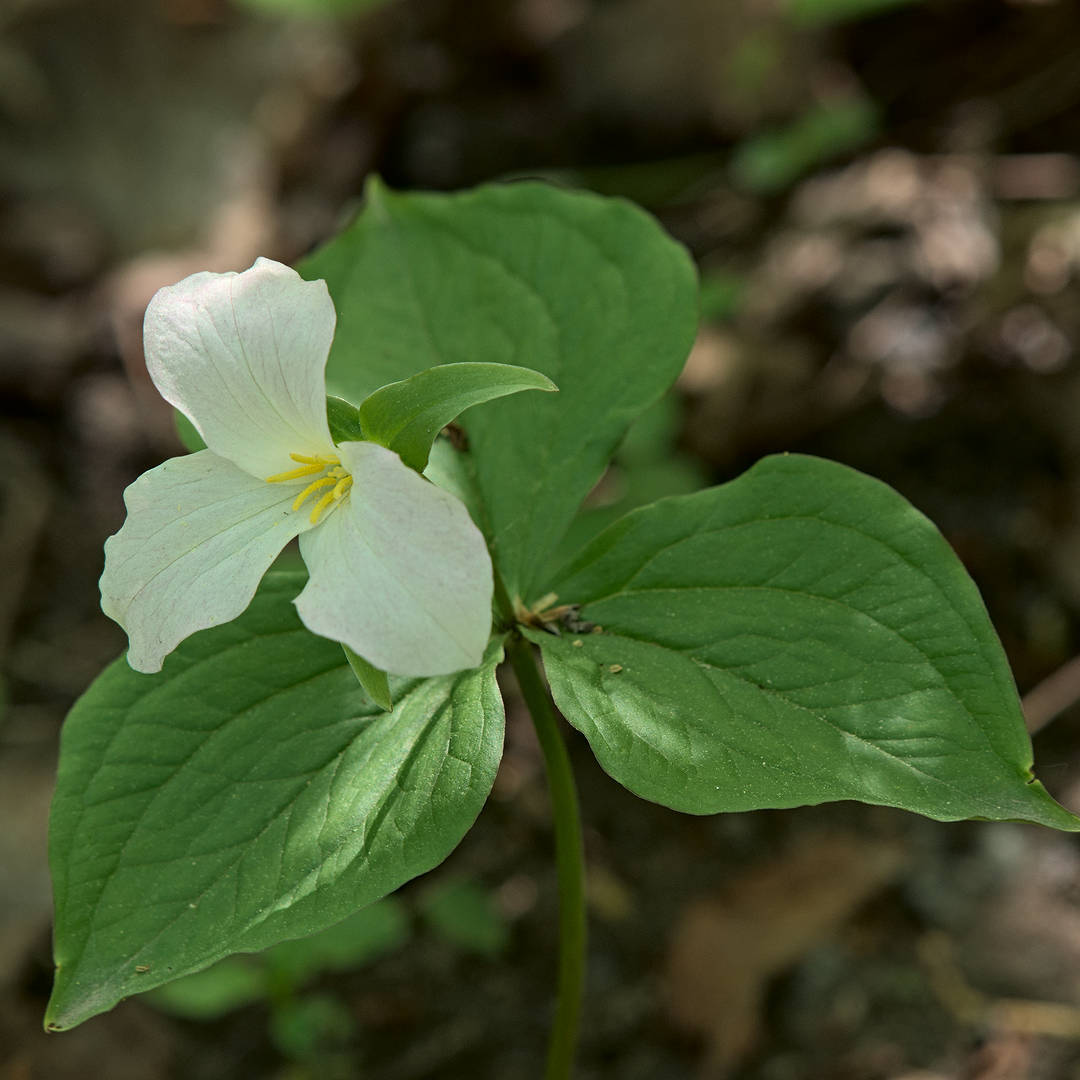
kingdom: Plantae
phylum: Tracheophyta
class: Liliopsida
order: Liliales
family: Melanthiaceae
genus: Trillium
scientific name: Trillium grandiflorum
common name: Great white trillium
